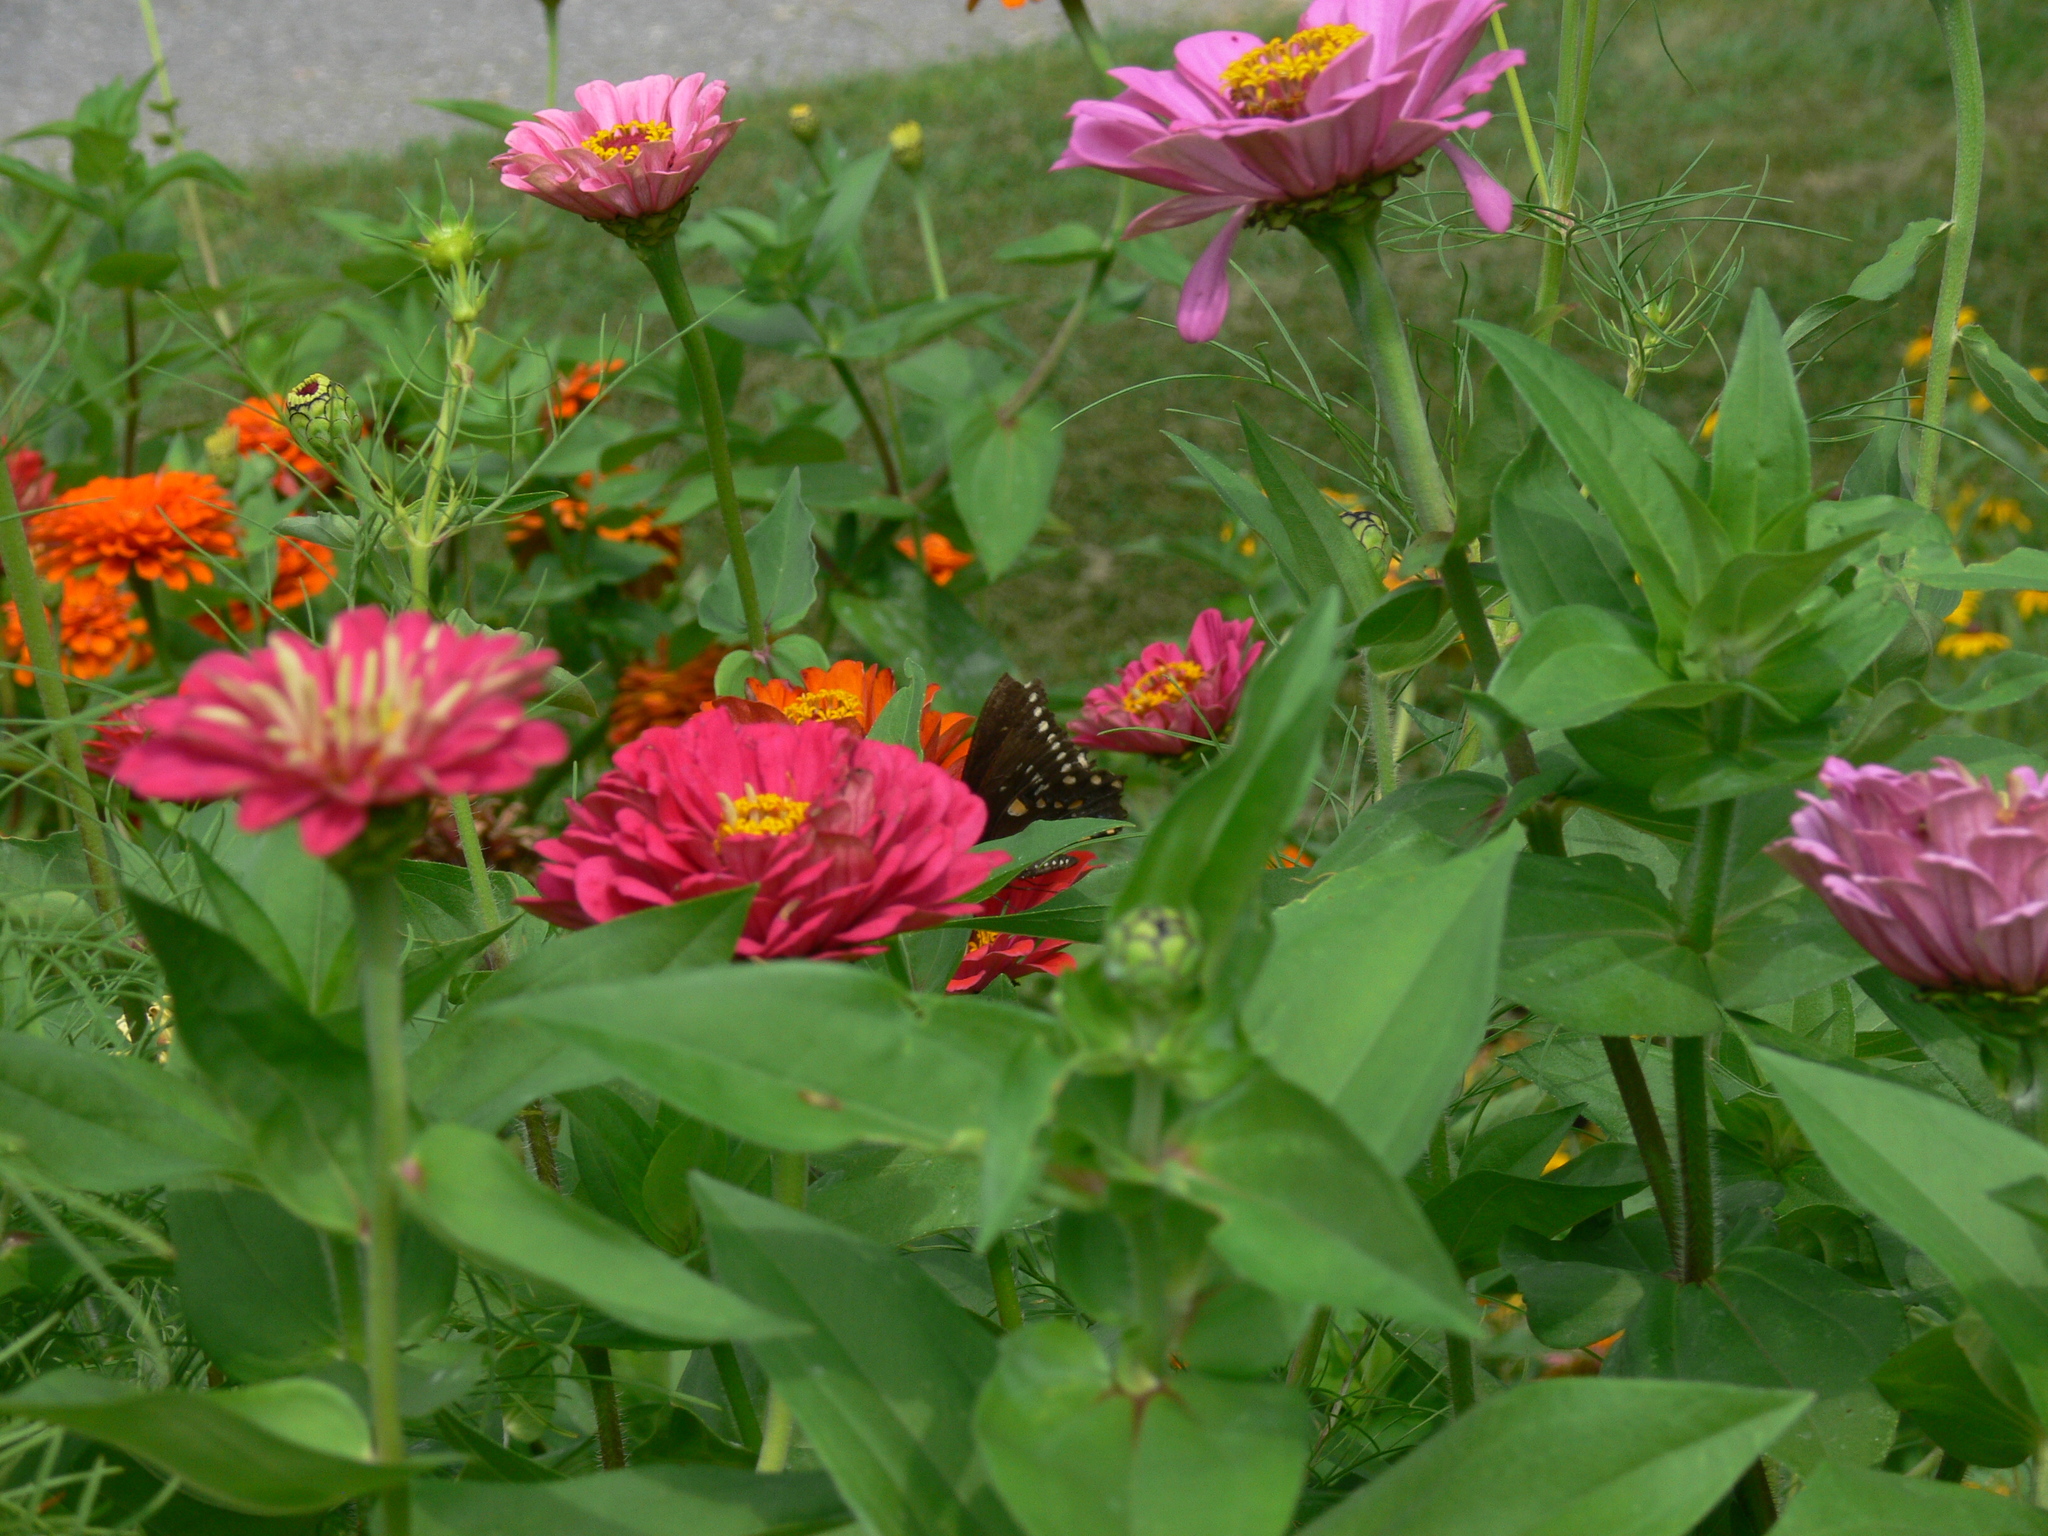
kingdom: Animalia
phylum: Arthropoda
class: Insecta
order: Lepidoptera
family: Papilionidae
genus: Papilio
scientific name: Papilio troilus
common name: Spicebush swallowtail
